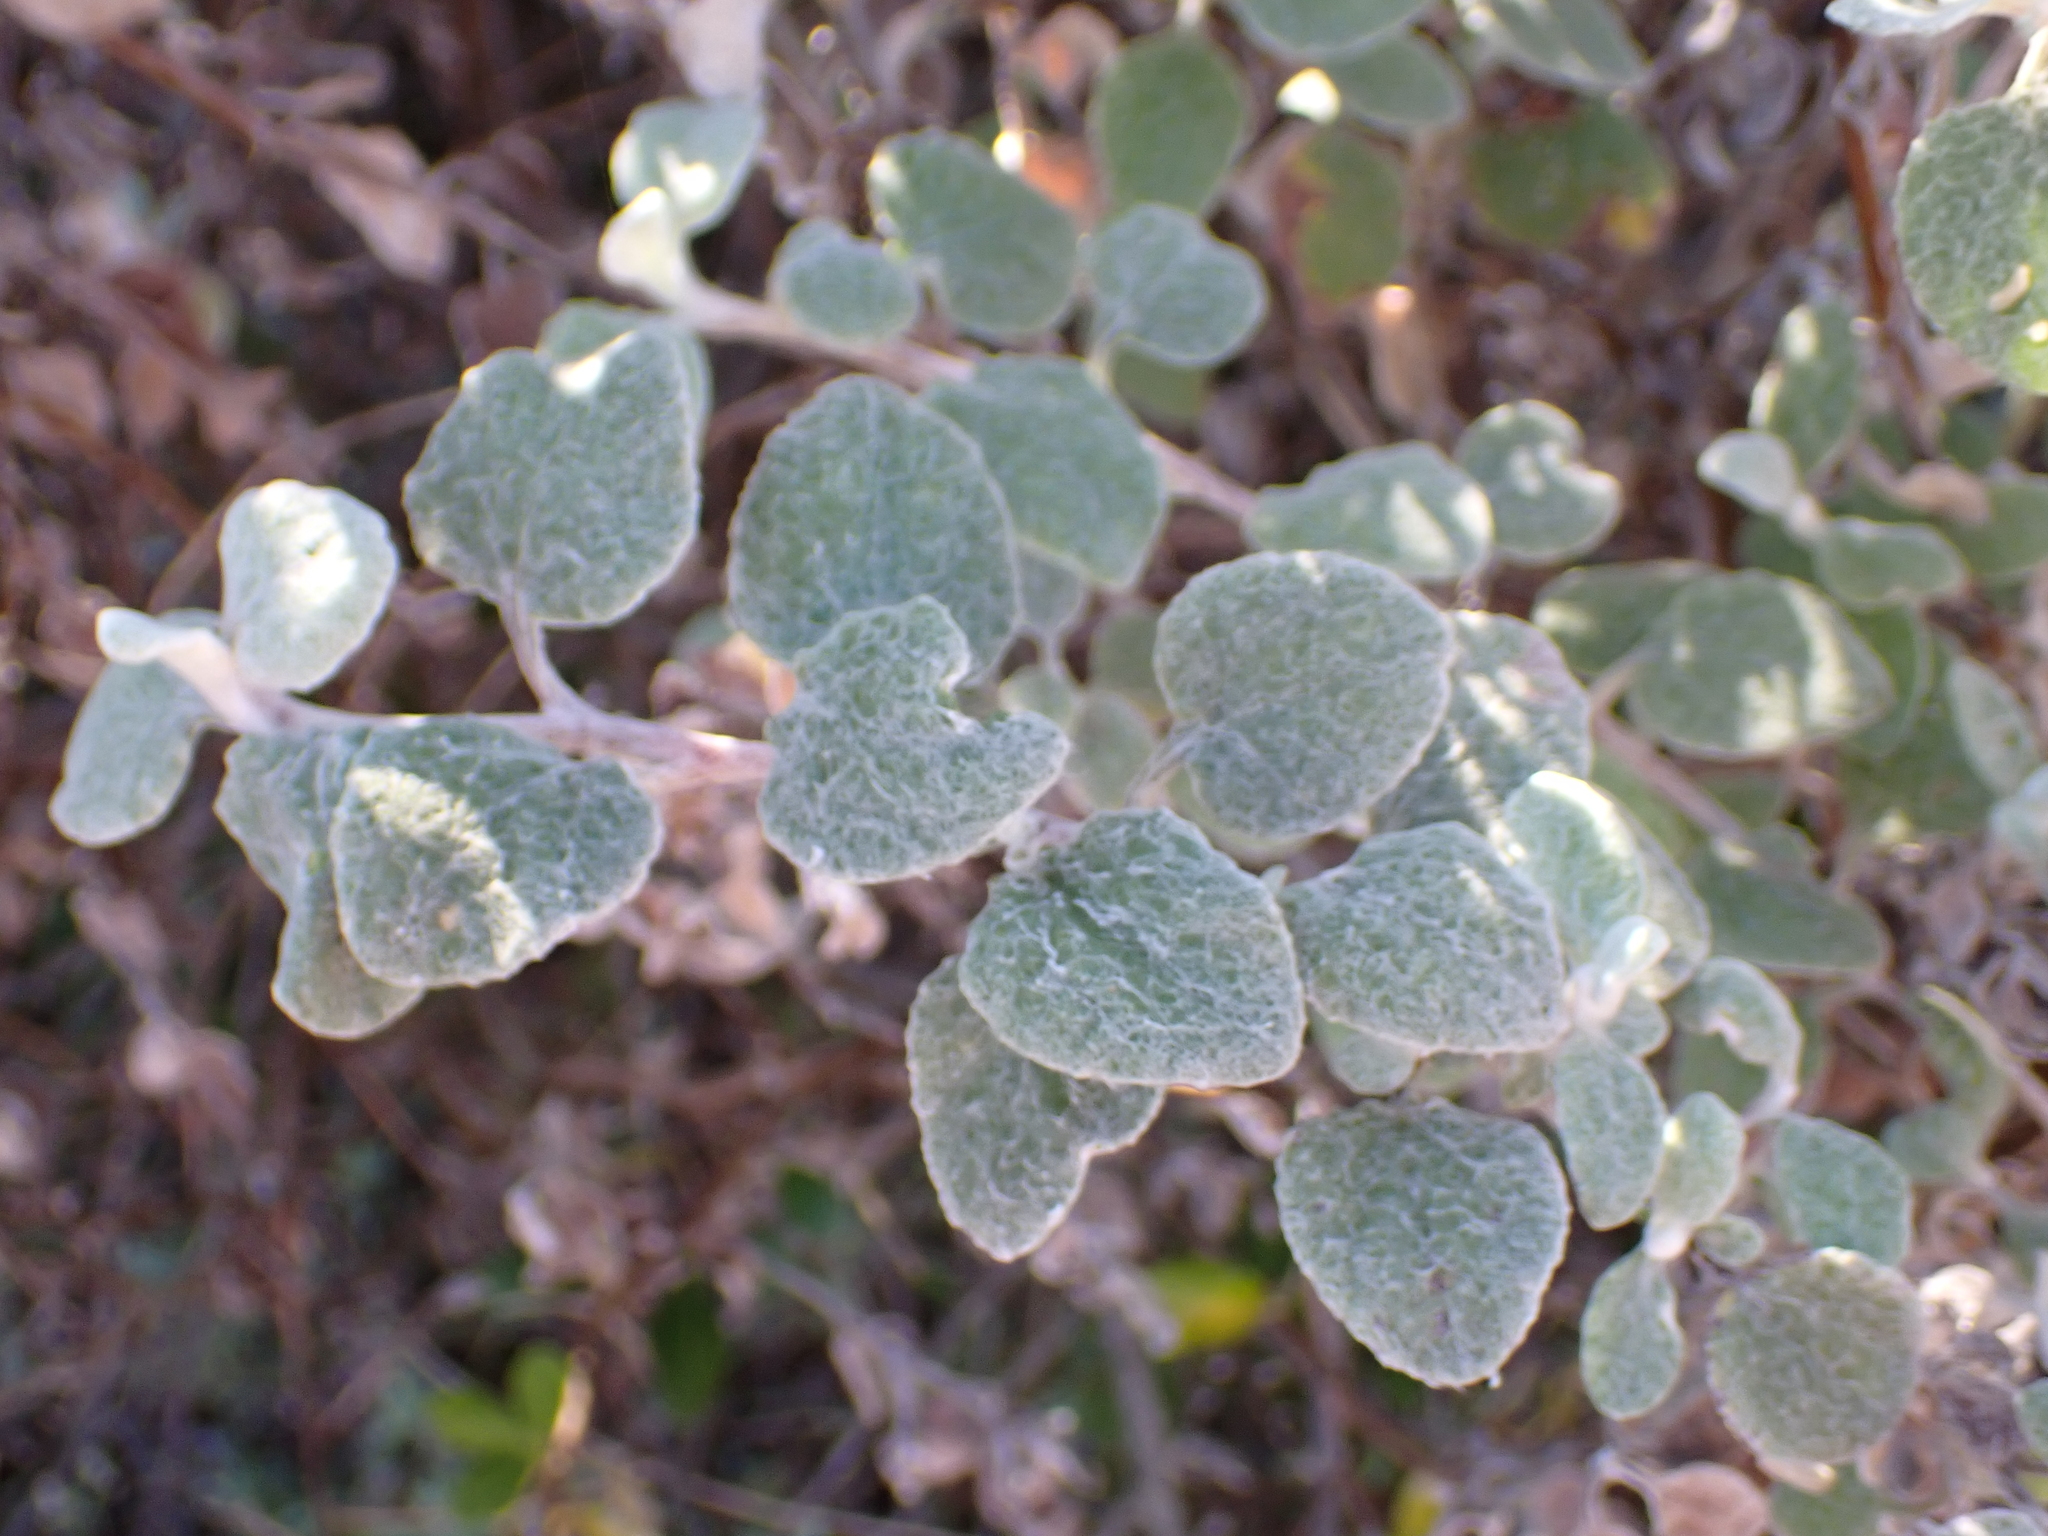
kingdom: Plantae
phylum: Tracheophyta
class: Magnoliopsida
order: Asterales
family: Asteraceae
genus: Helichrysum
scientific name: Helichrysum petiolare
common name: Licorice-plant
